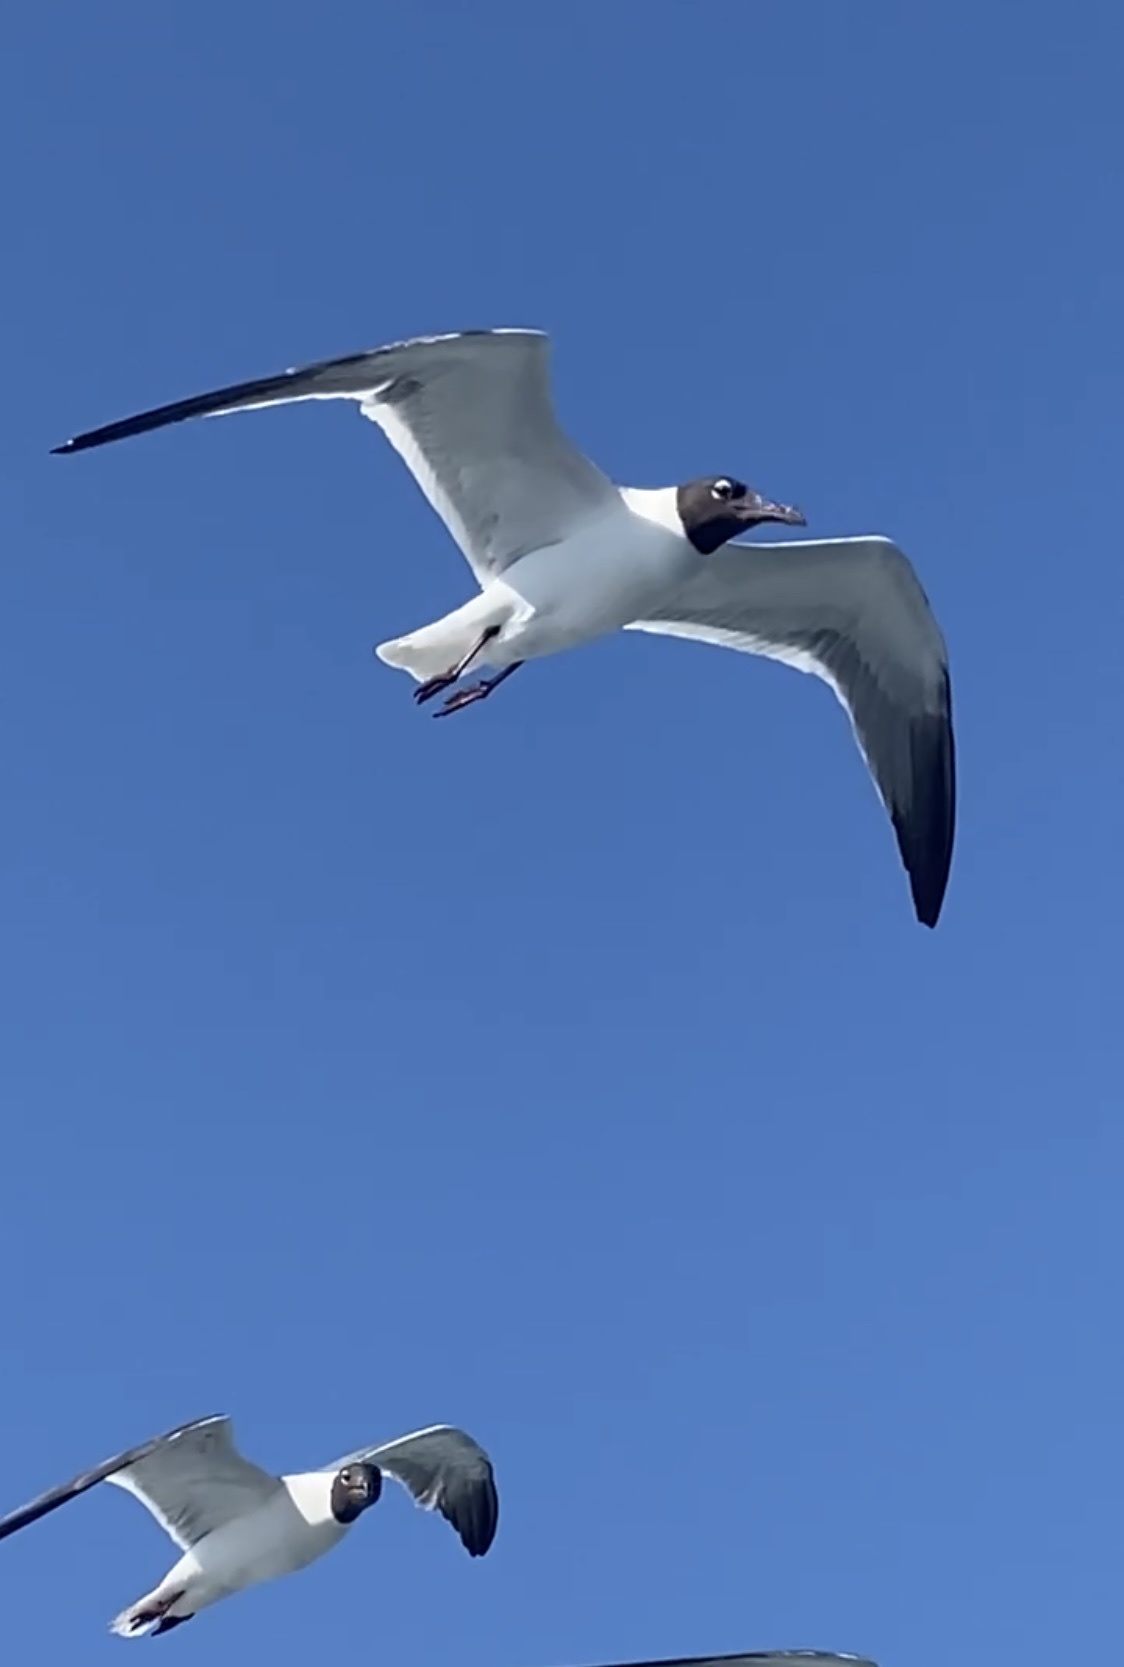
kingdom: Animalia
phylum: Chordata
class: Aves
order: Charadriiformes
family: Laridae
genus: Leucophaeus
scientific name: Leucophaeus atricilla
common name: Laughing gull
